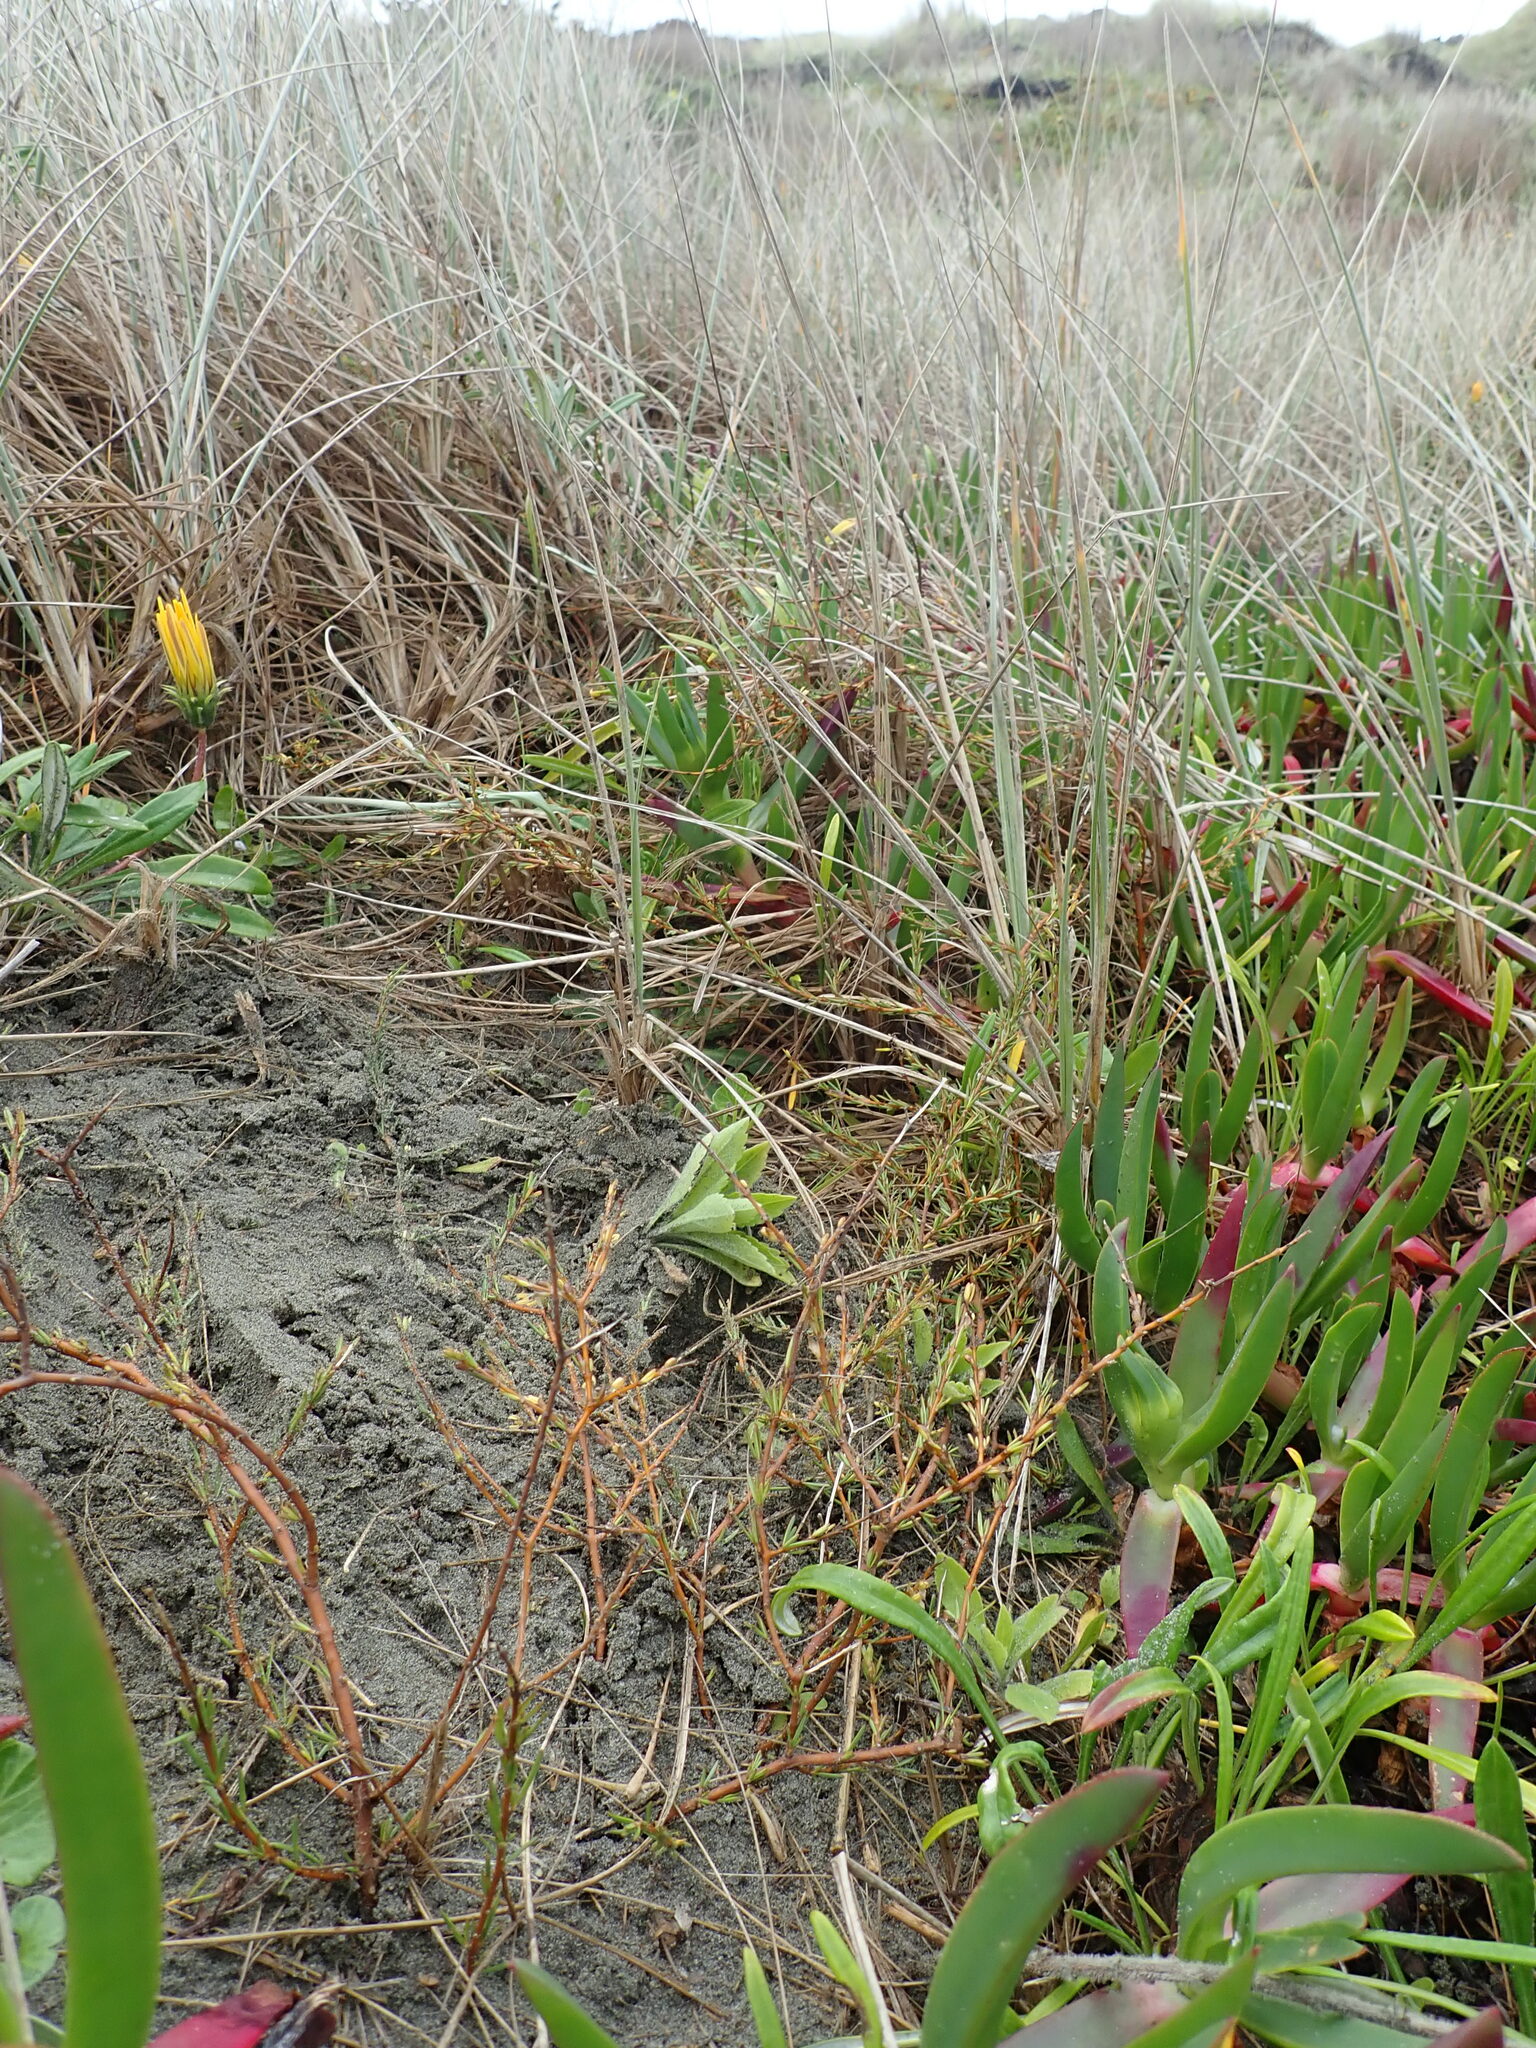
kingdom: Plantae
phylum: Tracheophyta
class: Magnoliopsida
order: Gentianales
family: Rubiaceae
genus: Coprosma
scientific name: Coprosma acerosa
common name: Sand coprosma
